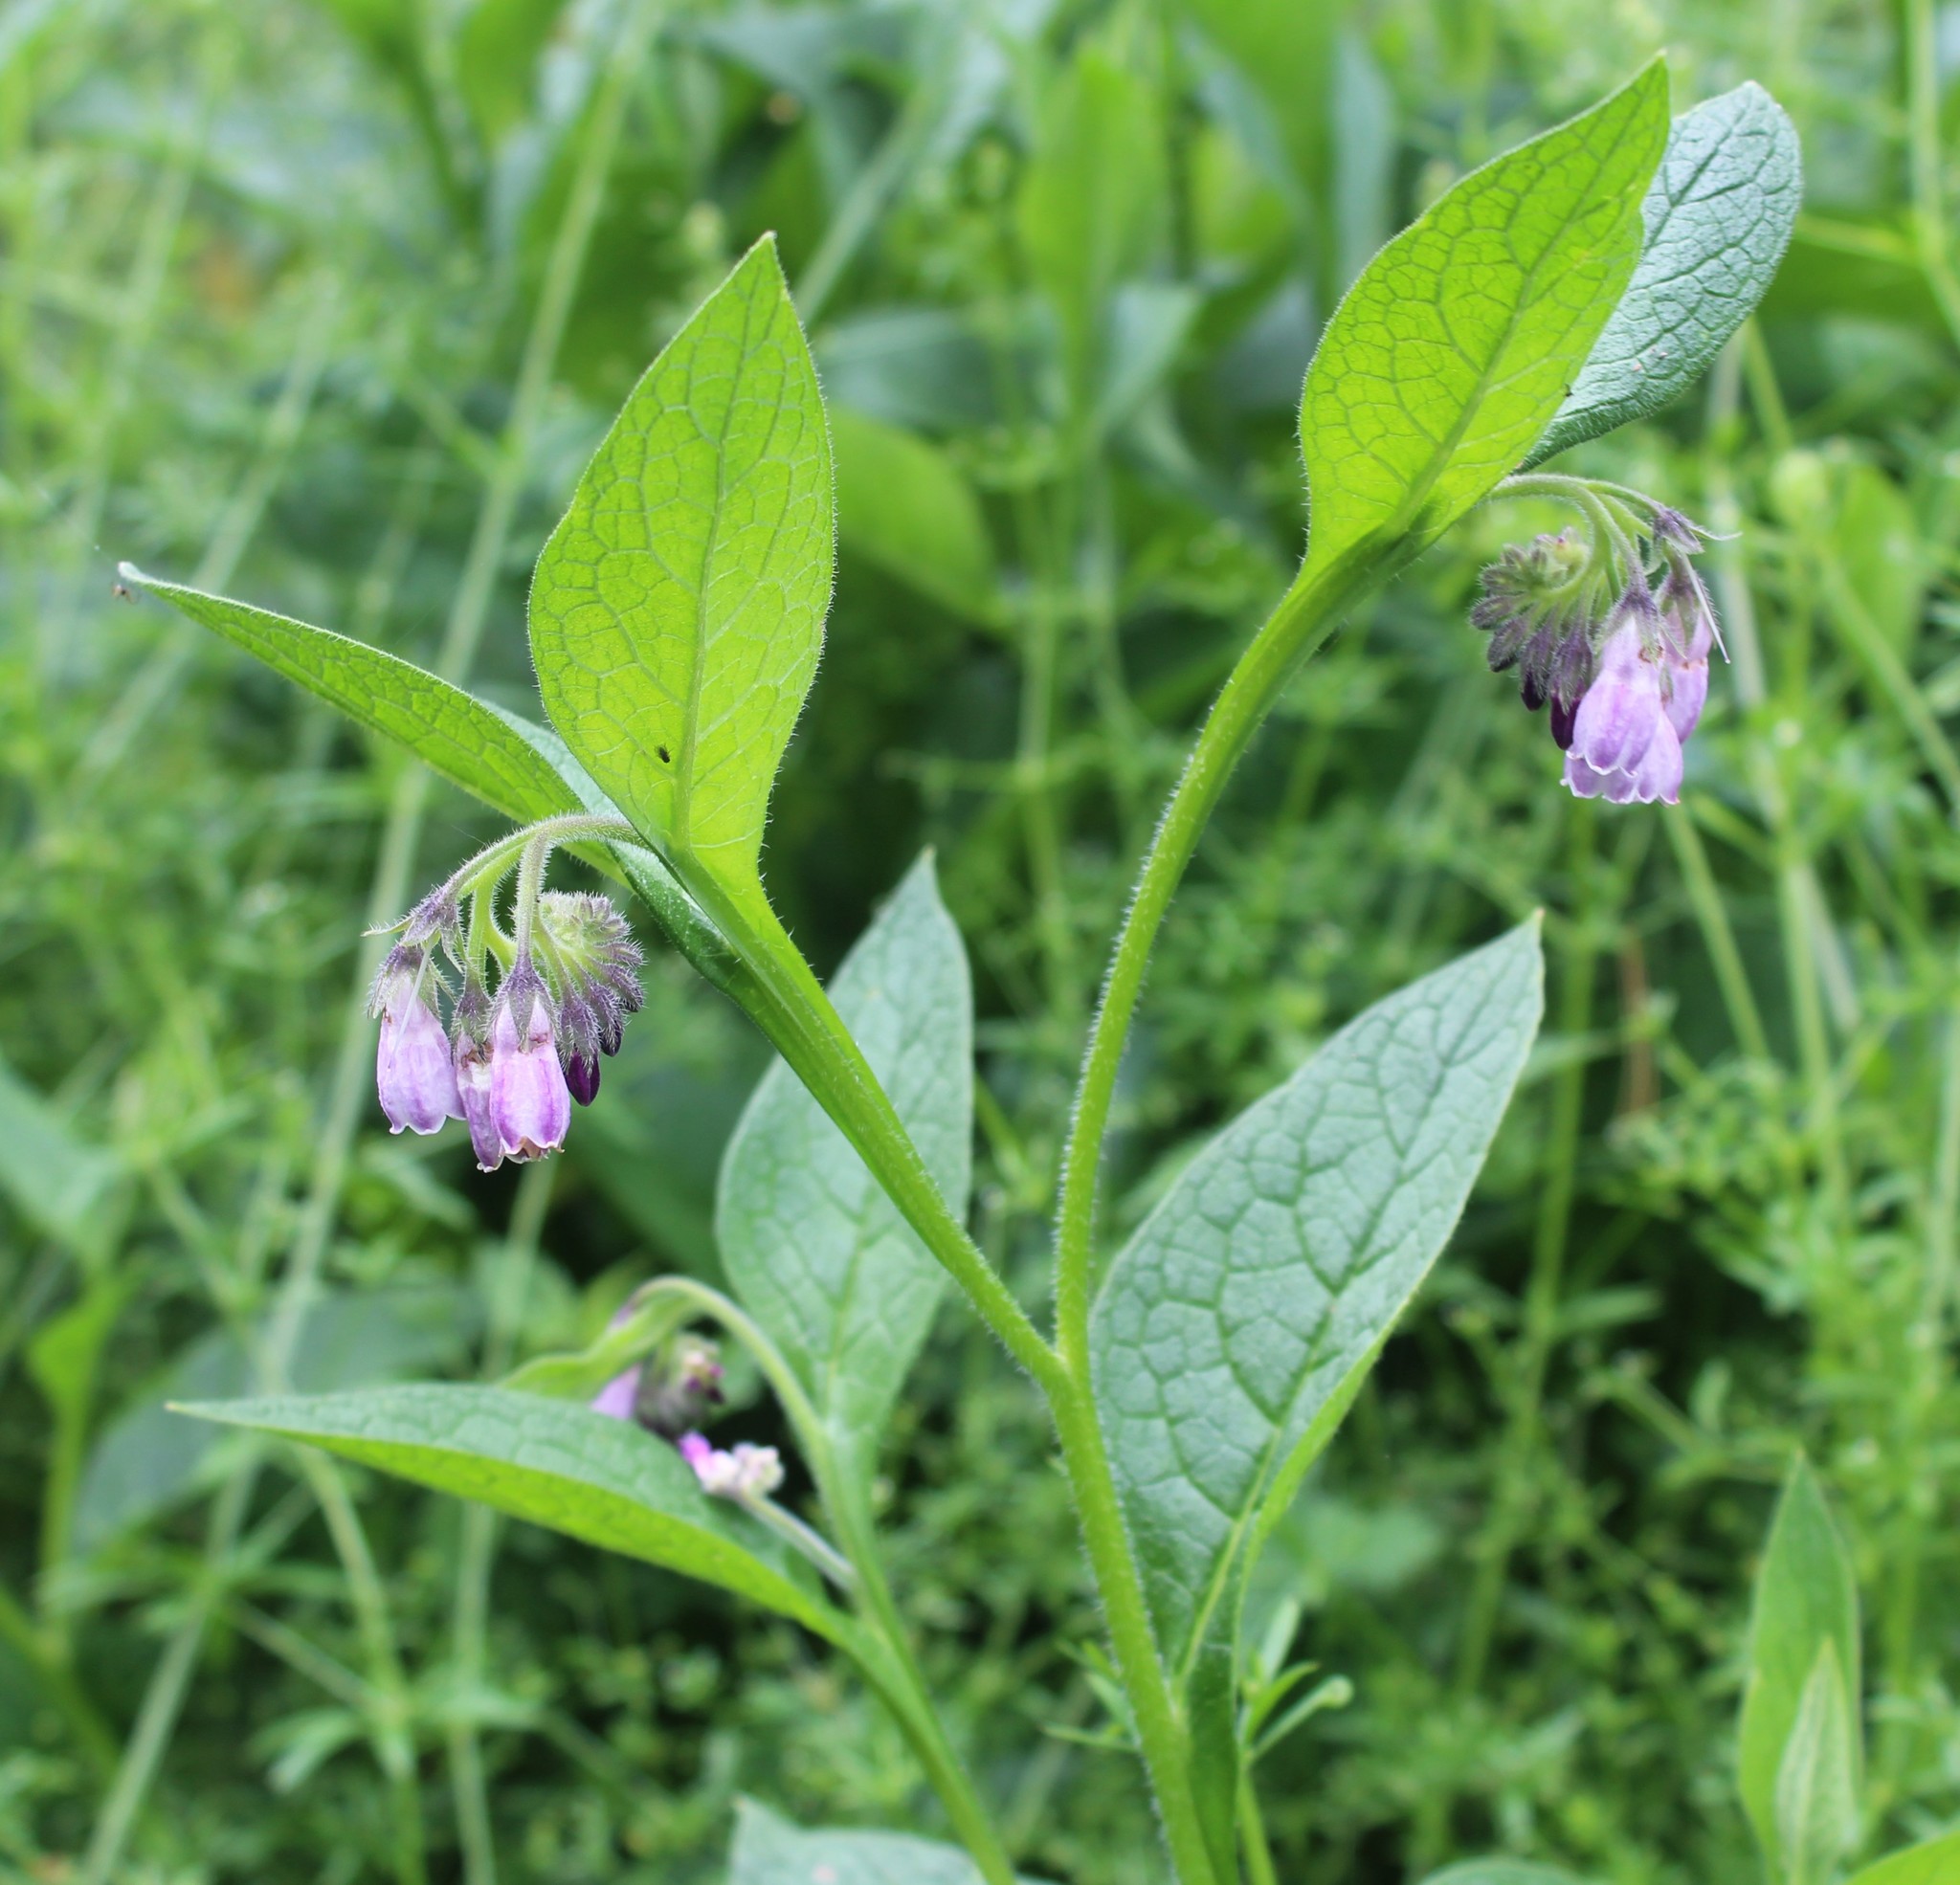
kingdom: Plantae
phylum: Tracheophyta
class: Magnoliopsida
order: Boraginales
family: Boraginaceae
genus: Symphytum
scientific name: Symphytum uplandicum
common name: Russian comfrey
